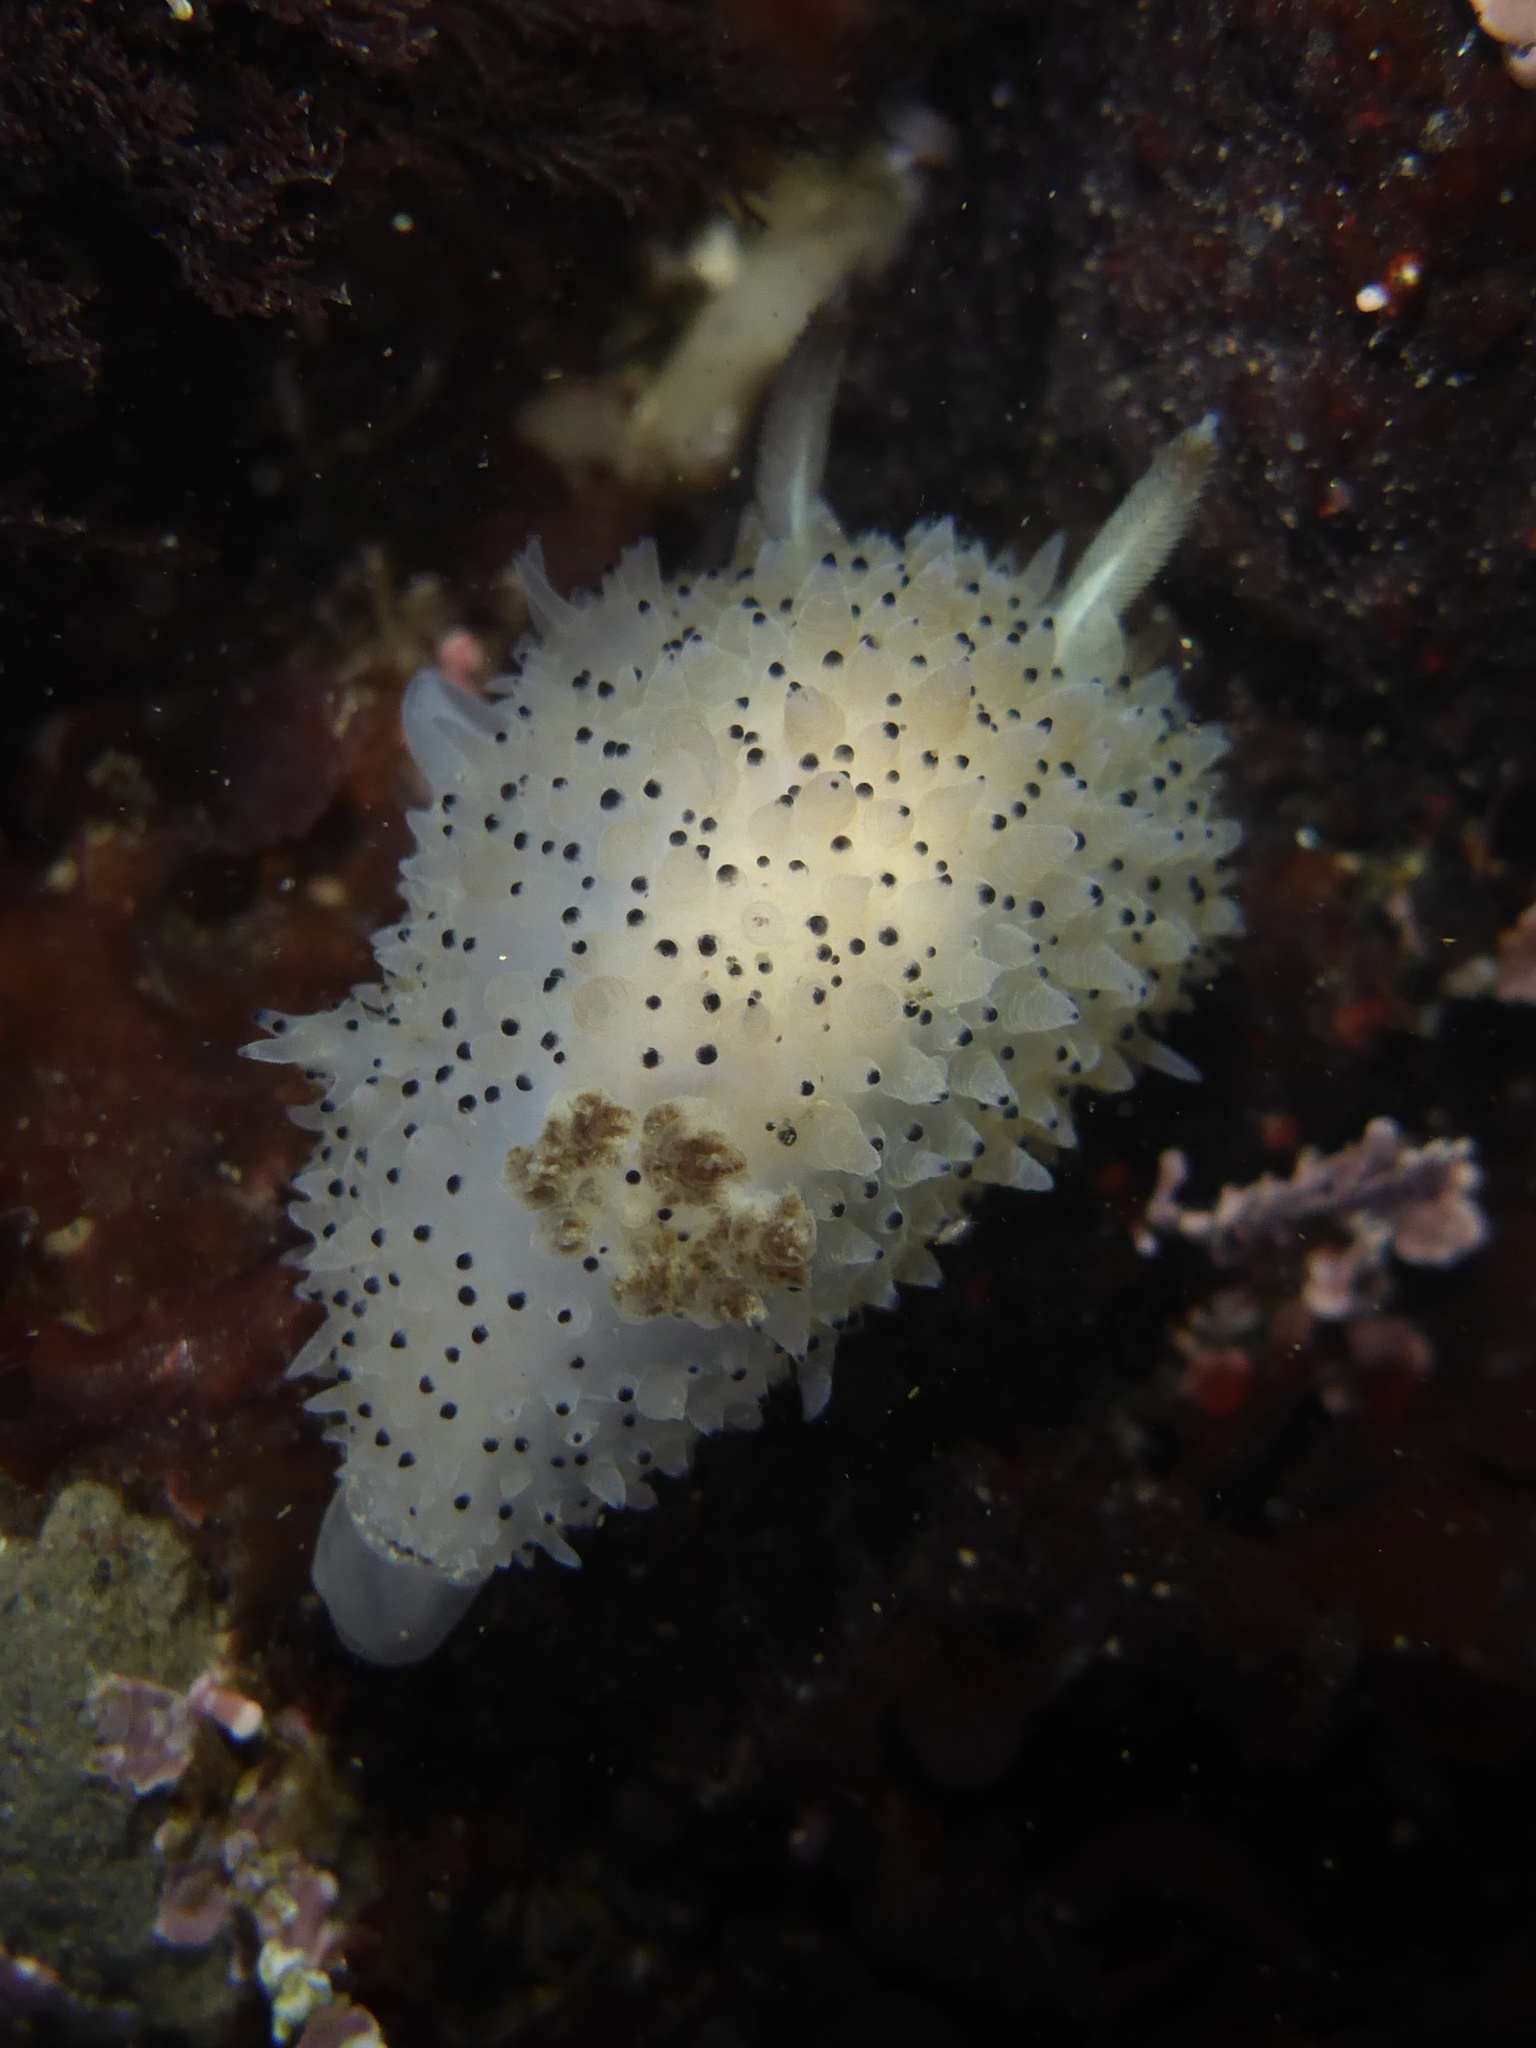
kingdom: Animalia
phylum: Mollusca
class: Gastropoda
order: Nudibranchia
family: Onchidorididae
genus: Acanthodoris
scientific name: Acanthodoris rhodoceras
